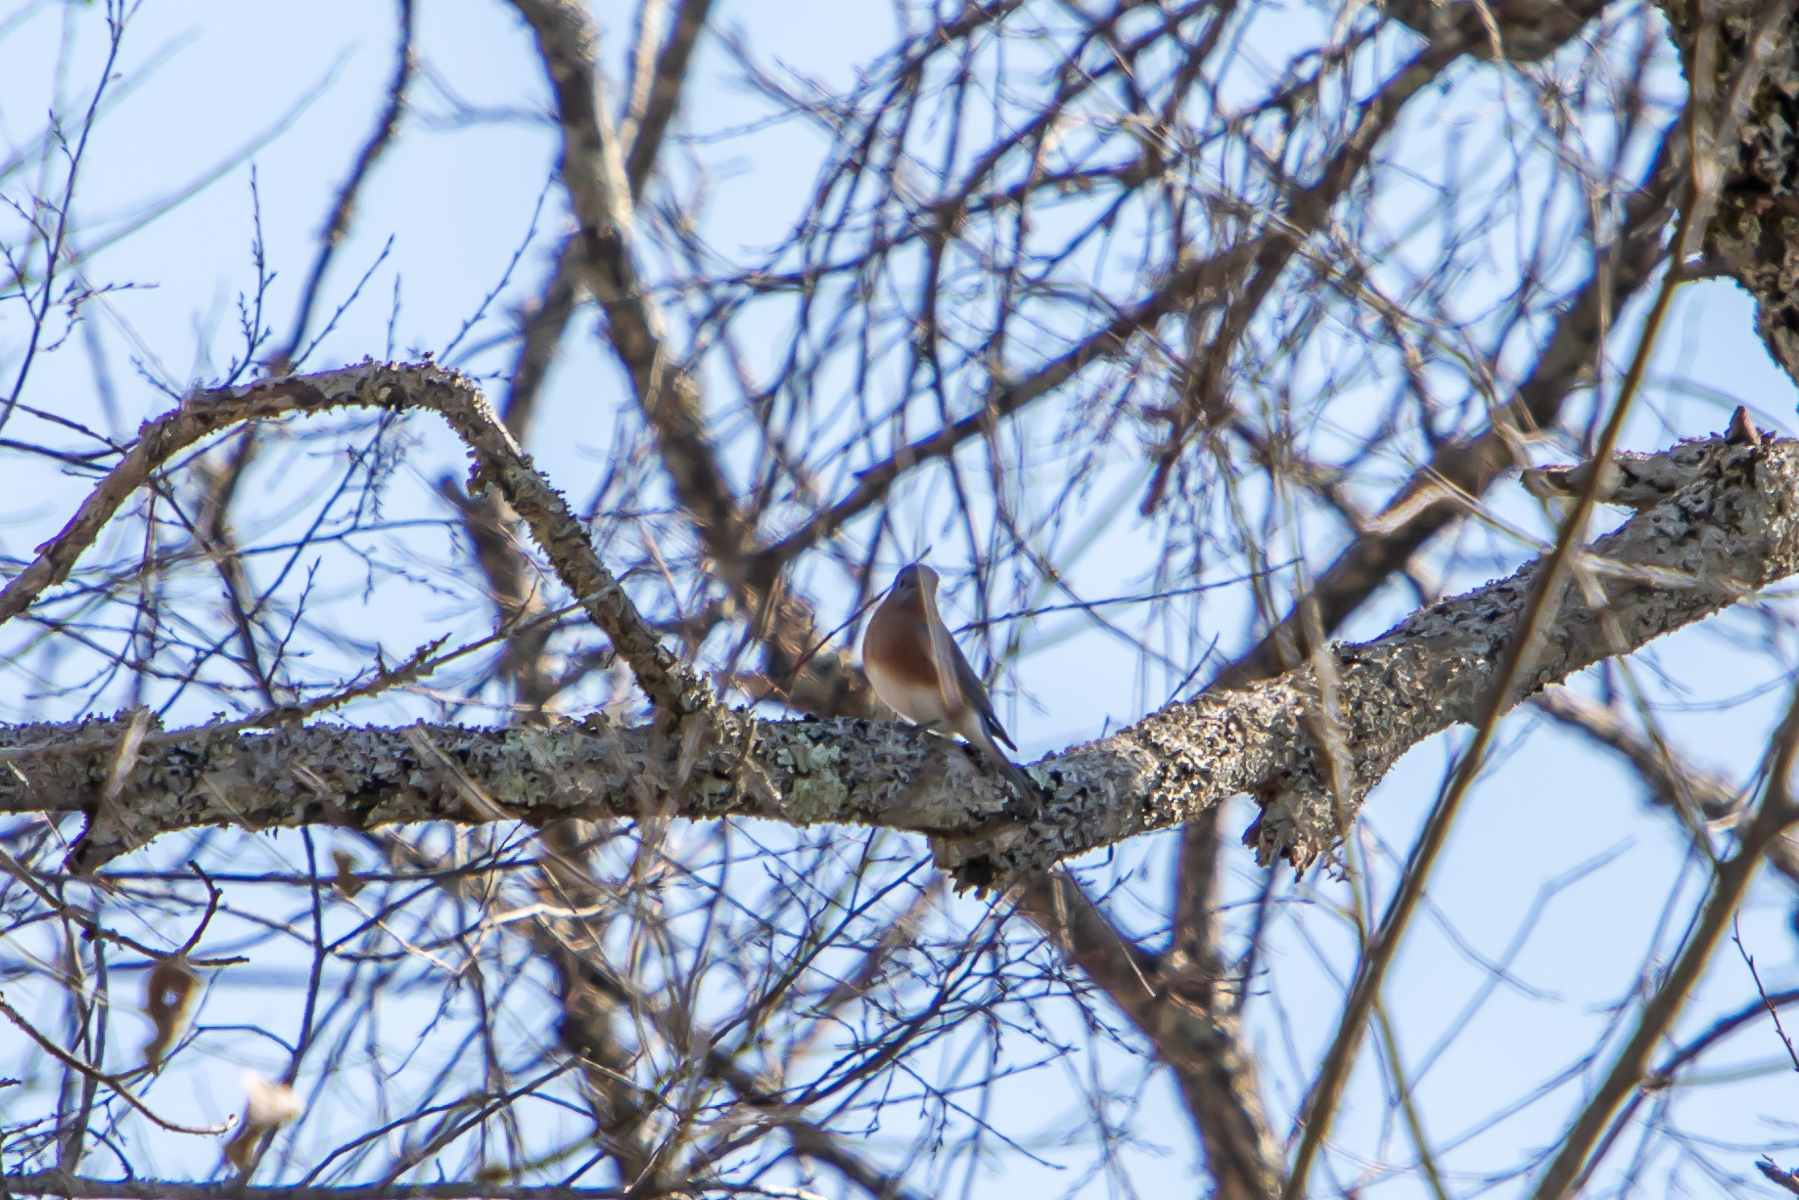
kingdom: Animalia
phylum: Chordata
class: Aves
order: Passeriformes
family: Turdidae
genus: Sialia
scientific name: Sialia sialis
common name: Eastern bluebird
